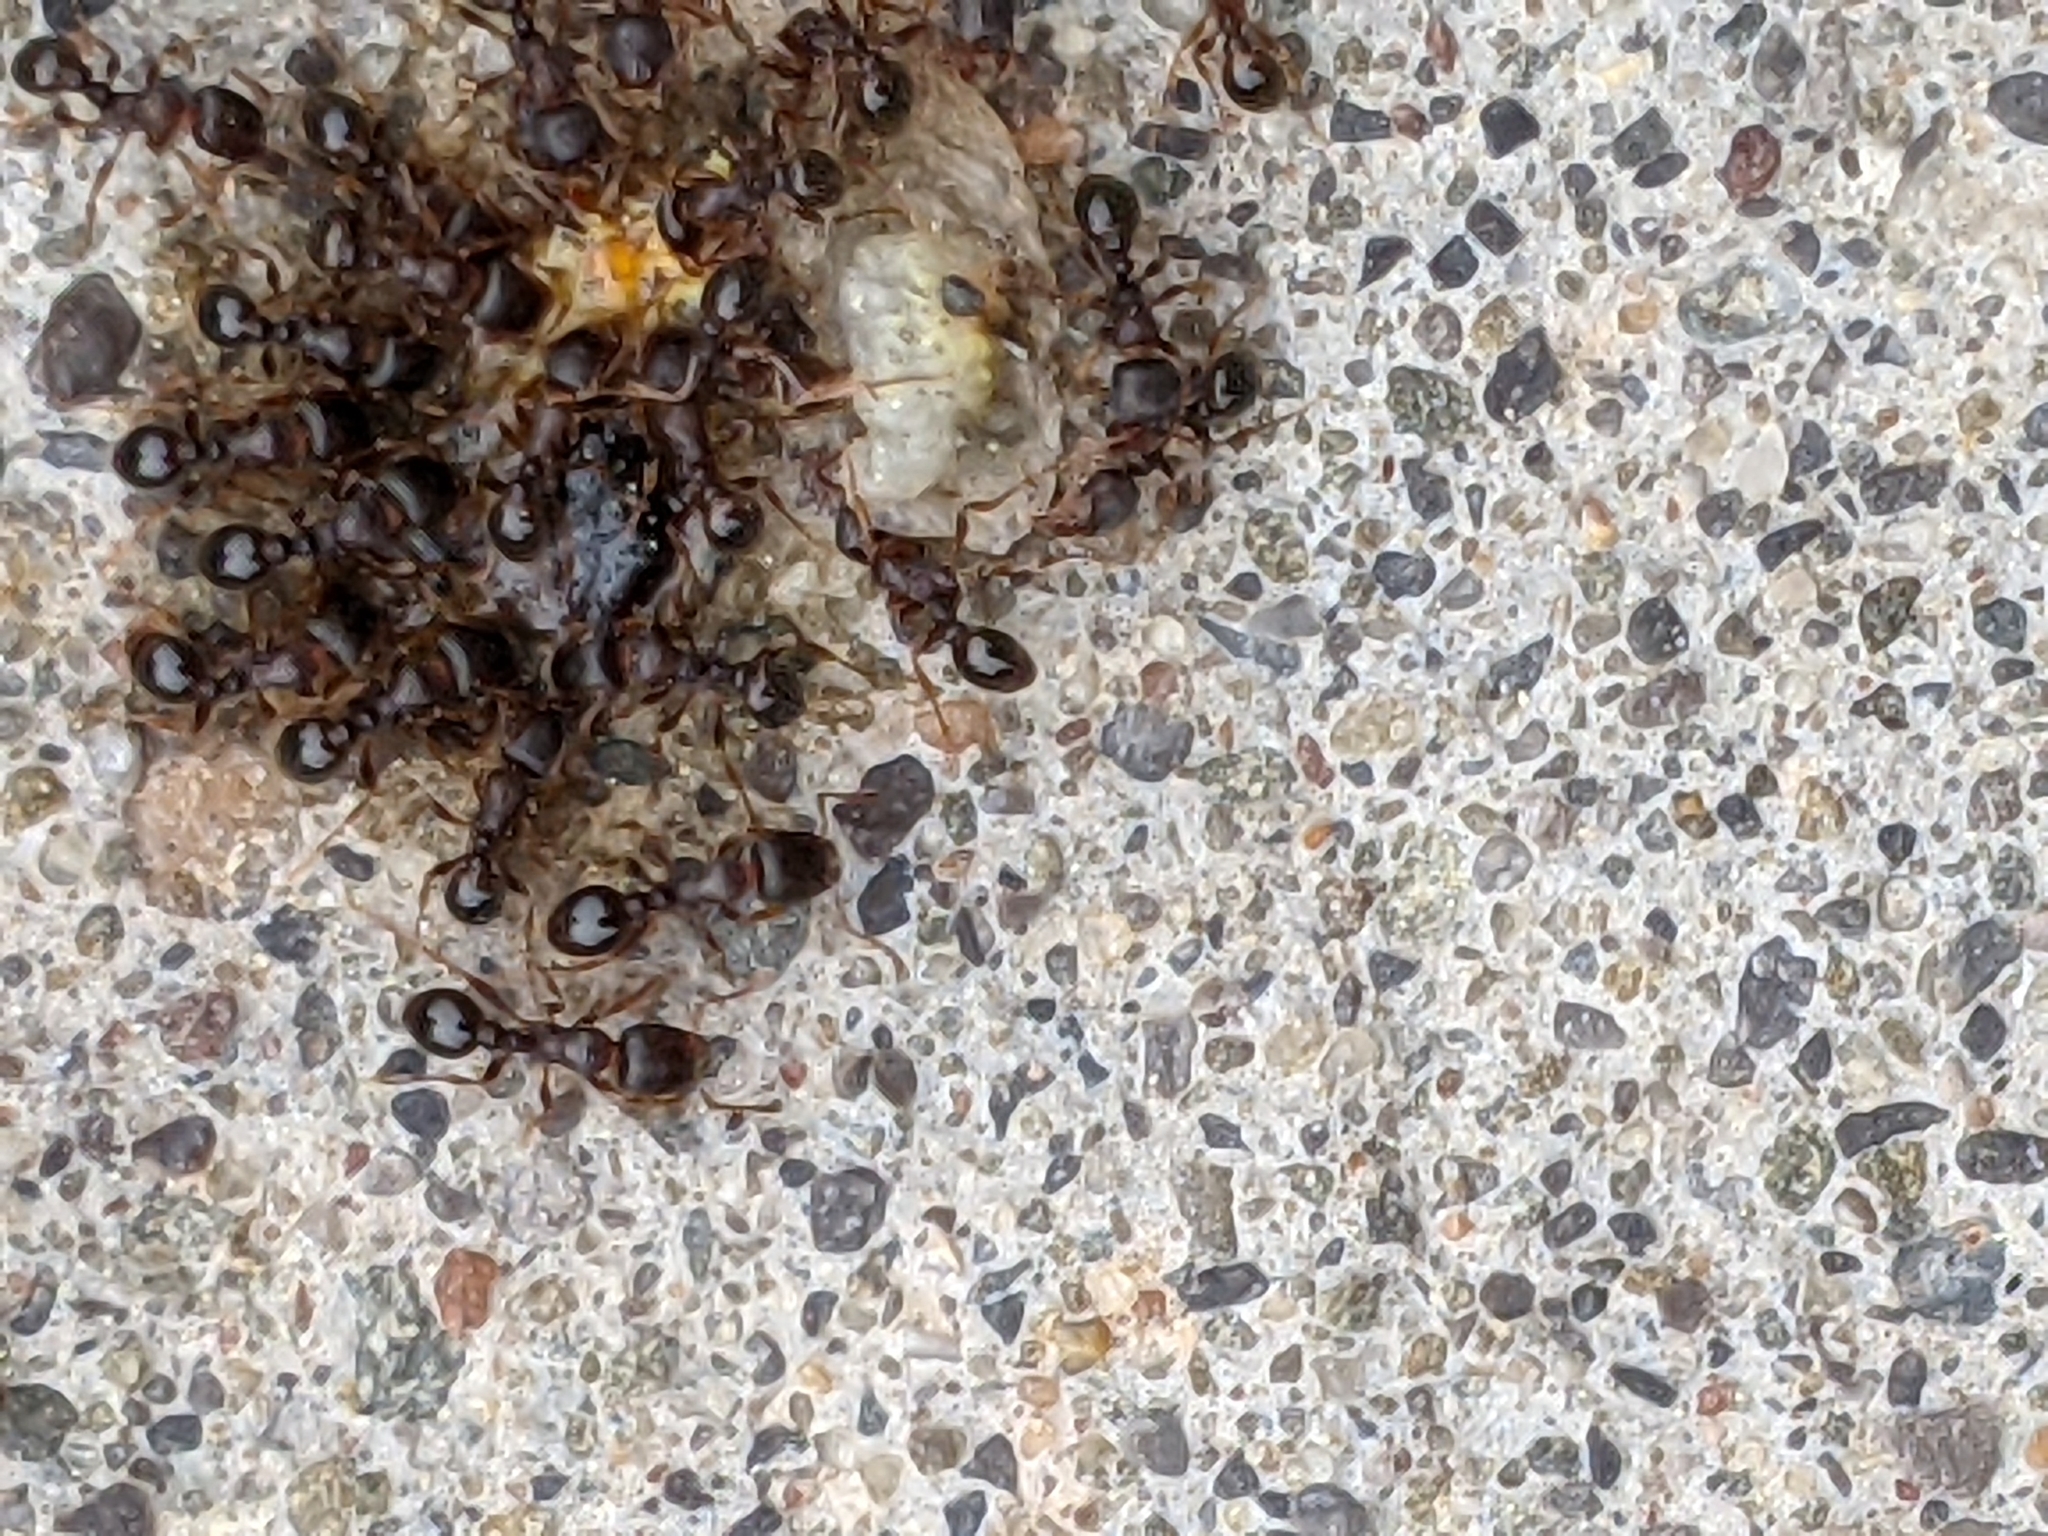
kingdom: Animalia
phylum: Arthropoda
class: Insecta
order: Hymenoptera
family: Formicidae
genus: Tetramorium
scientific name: Tetramorium immigrans
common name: Pavement ant
